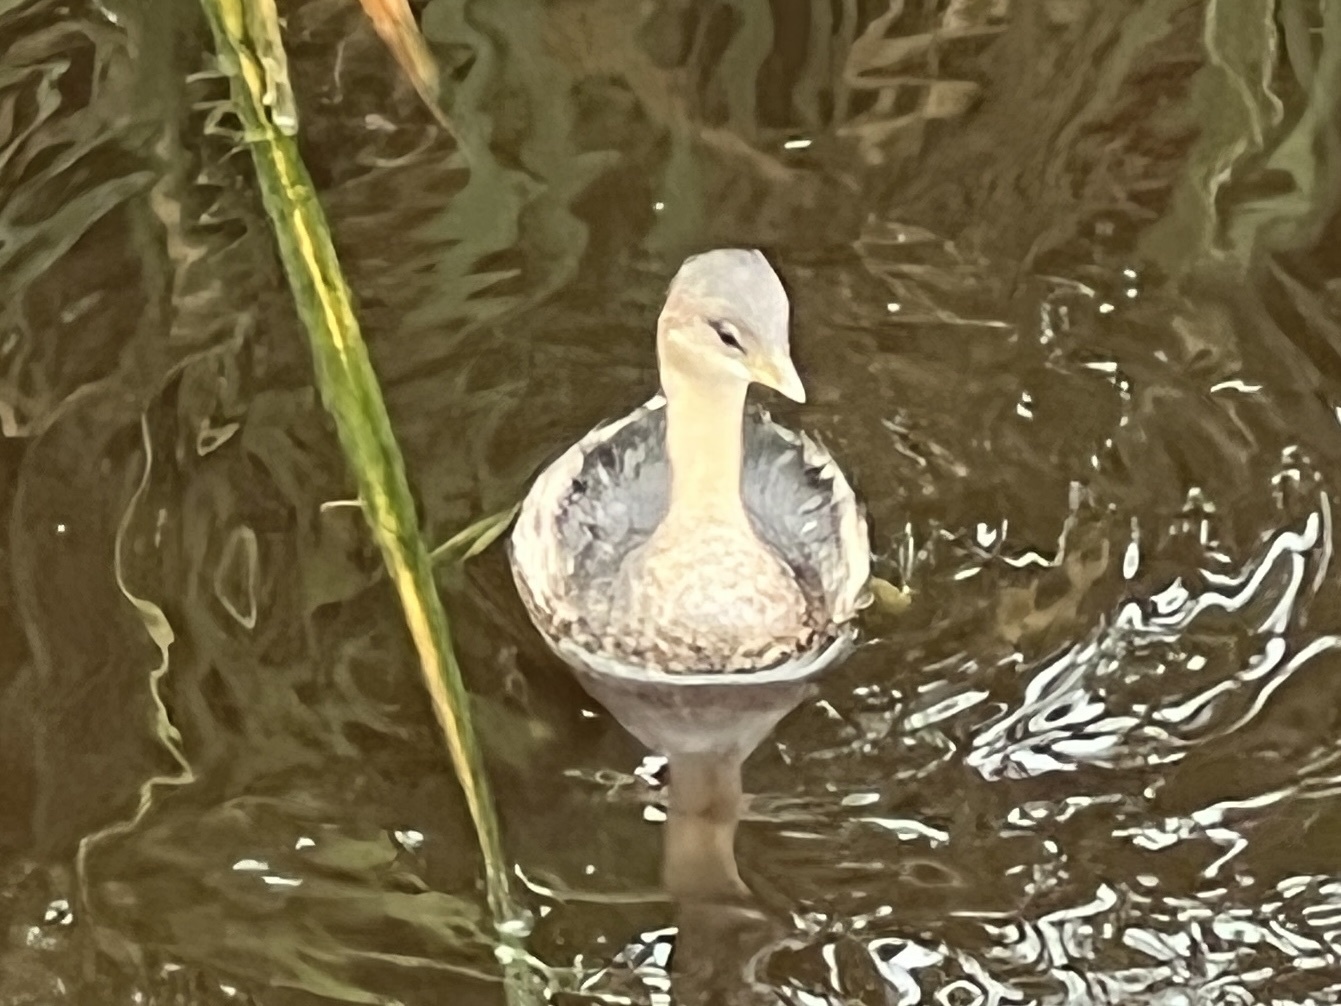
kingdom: Animalia
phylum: Chordata
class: Aves
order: Podicipediformes
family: Podicipedidae
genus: Podilymbus
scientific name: Podilymbus podiceps
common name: Pied-billed grebe
